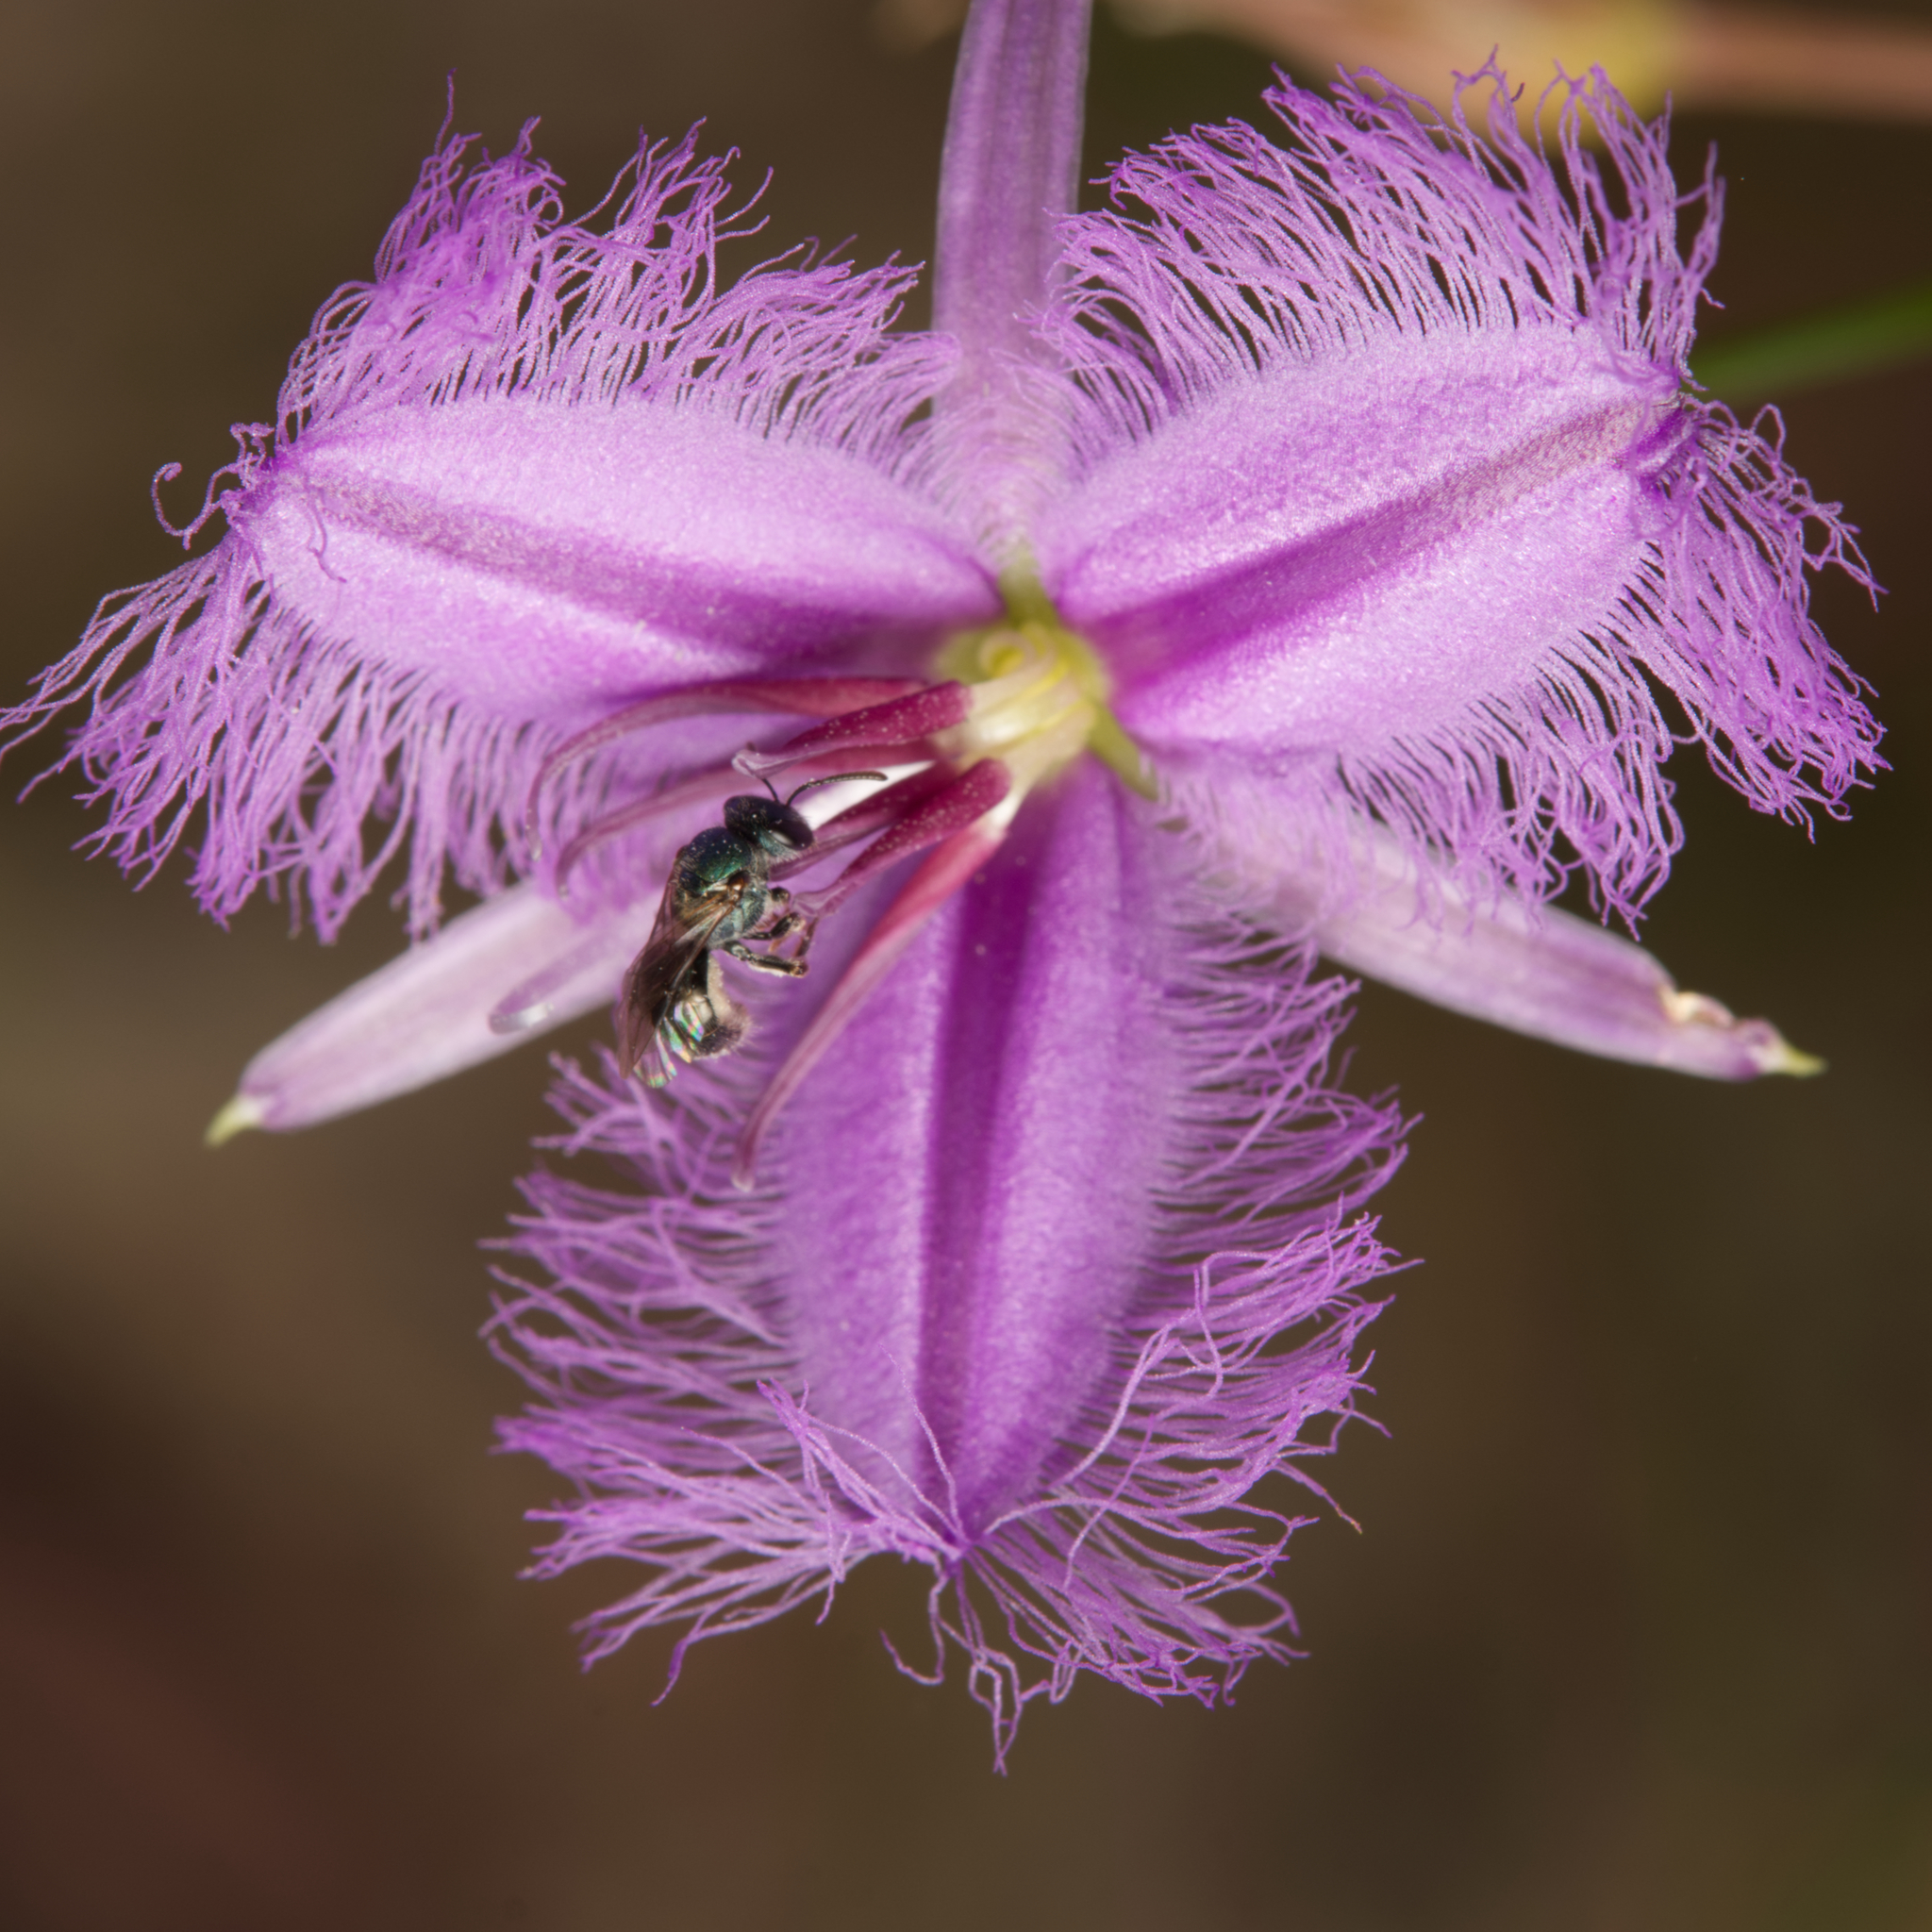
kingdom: Plantae
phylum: Tracheophyta
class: Liliopsida
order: Asparagales
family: Asparagaceae
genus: Thysanotus
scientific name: Thysanotus tuberosus
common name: Common fringed-lily
